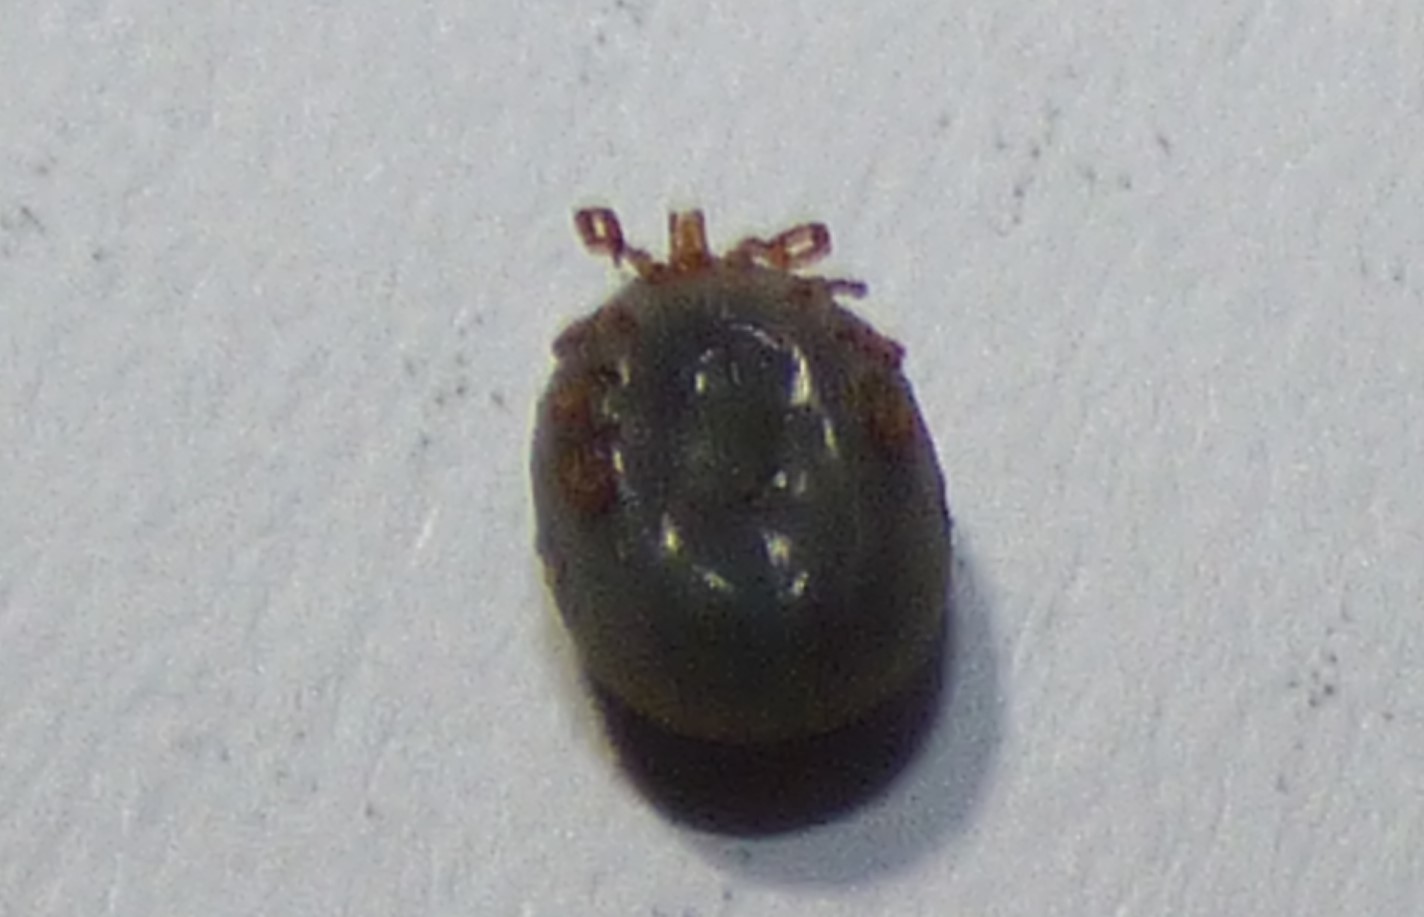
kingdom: Animalia
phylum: Arthropoda
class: Arachnida
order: Ixodida
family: Ixodidae
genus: Amblyomma
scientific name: Amblyomma americanum
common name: Lone star tick
